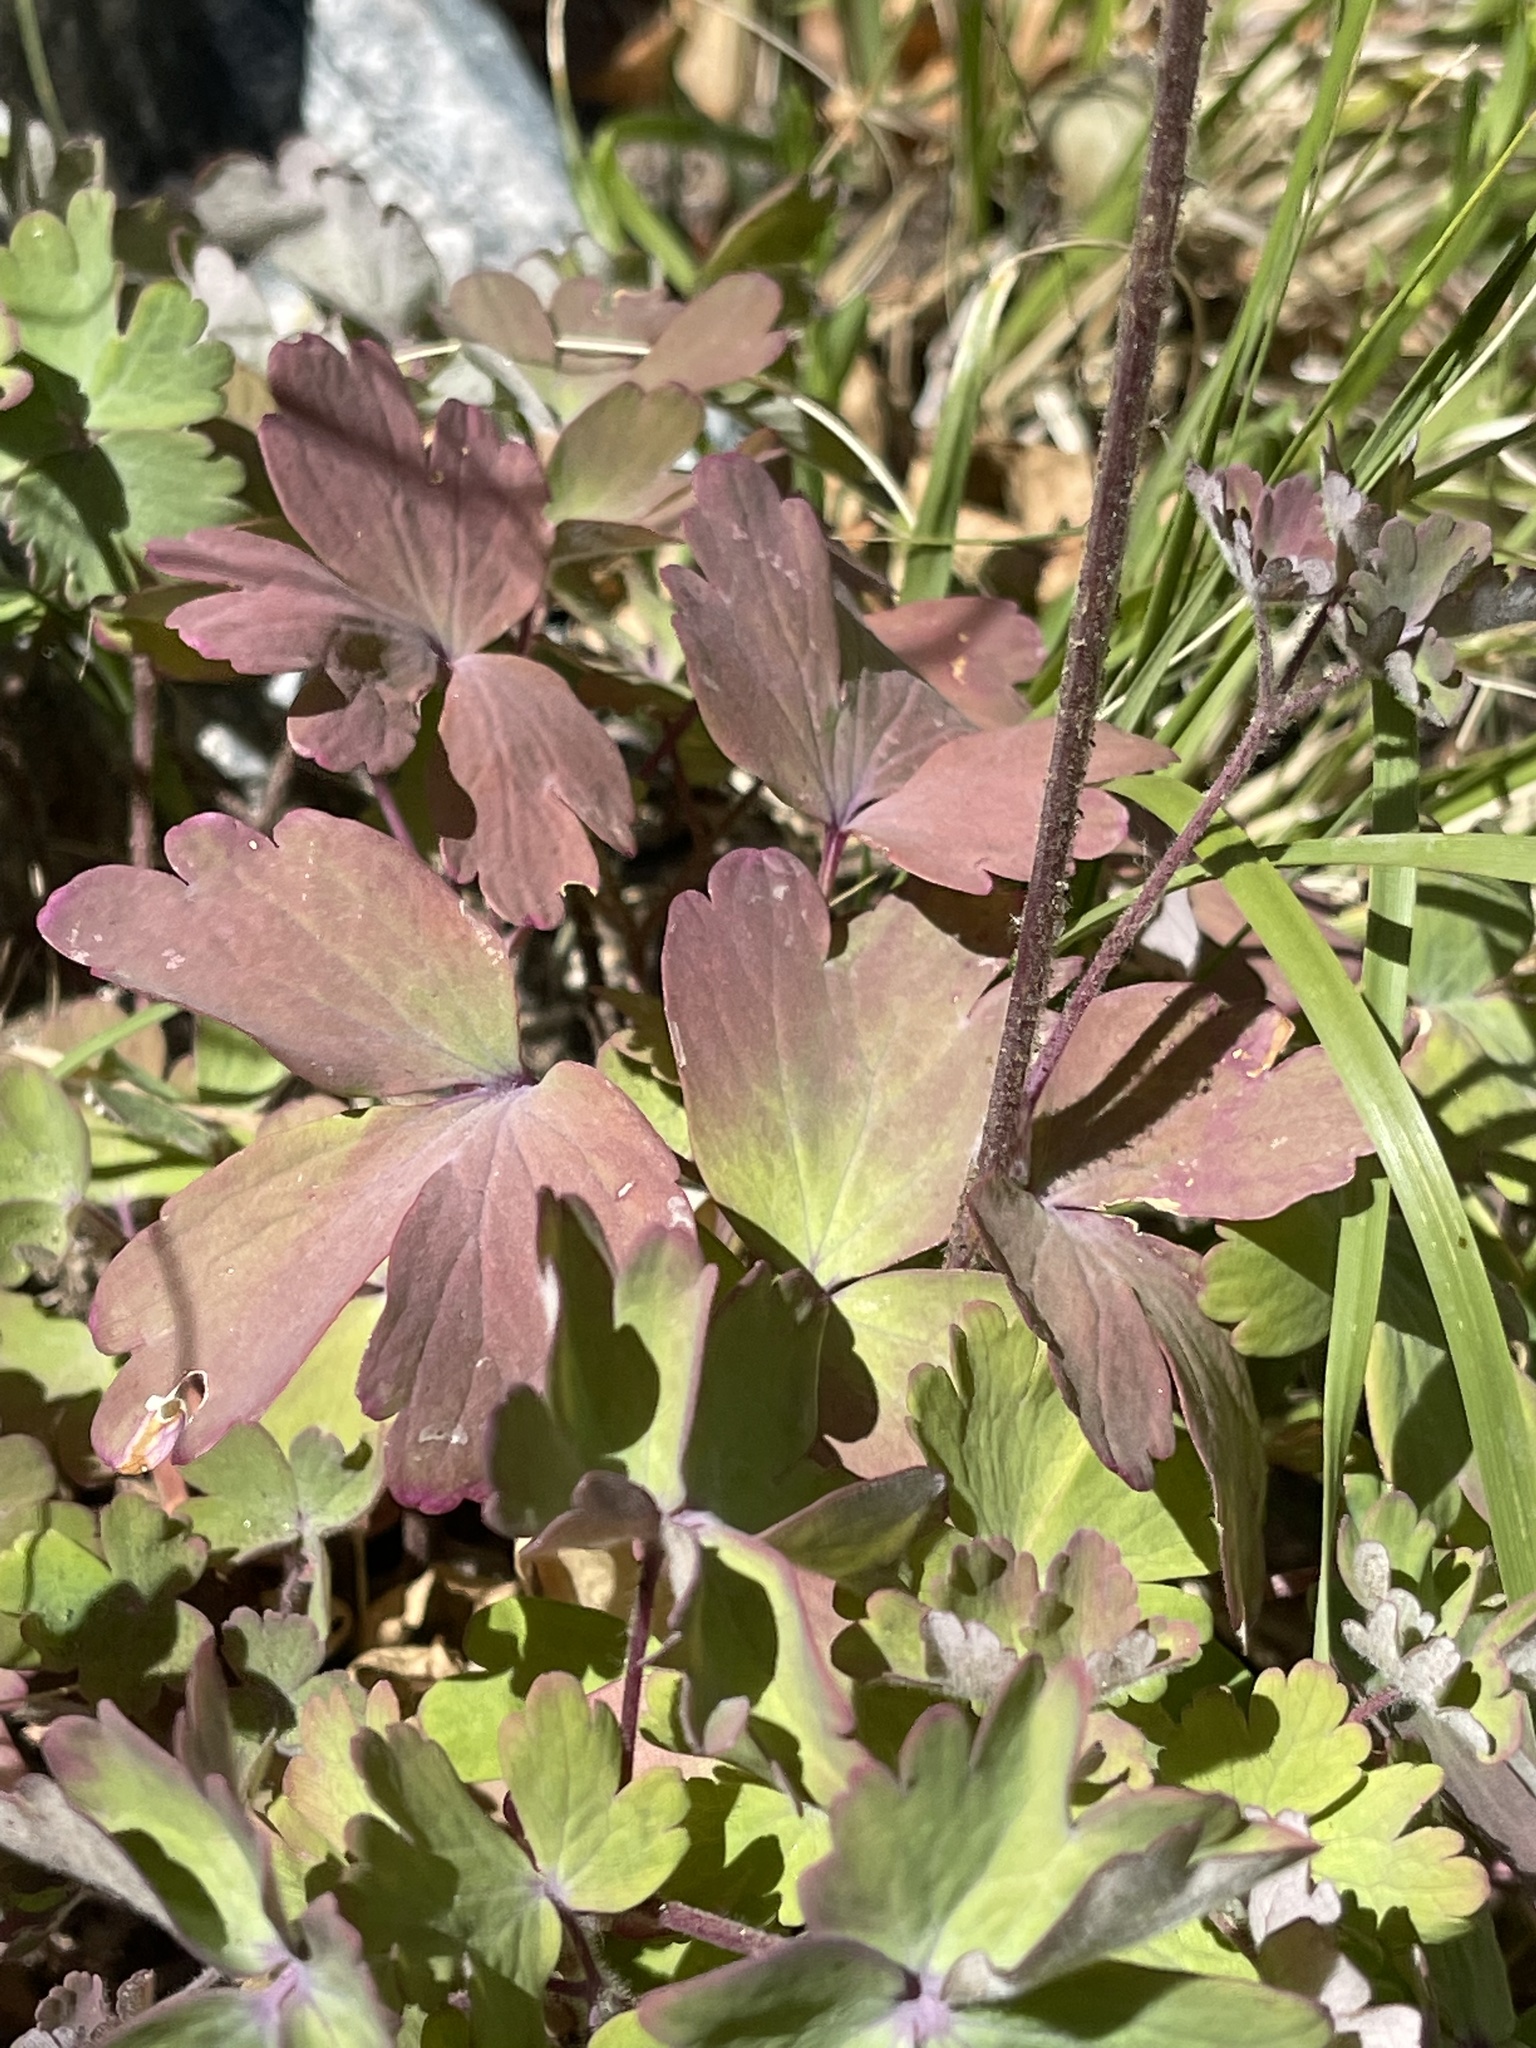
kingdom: Plantae
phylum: Tracheophyta
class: Magnoliopsida
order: Ranunculales
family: Ranunculaceae
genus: Aquilegia
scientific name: Aquilegia formosa
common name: Sitka columbine
